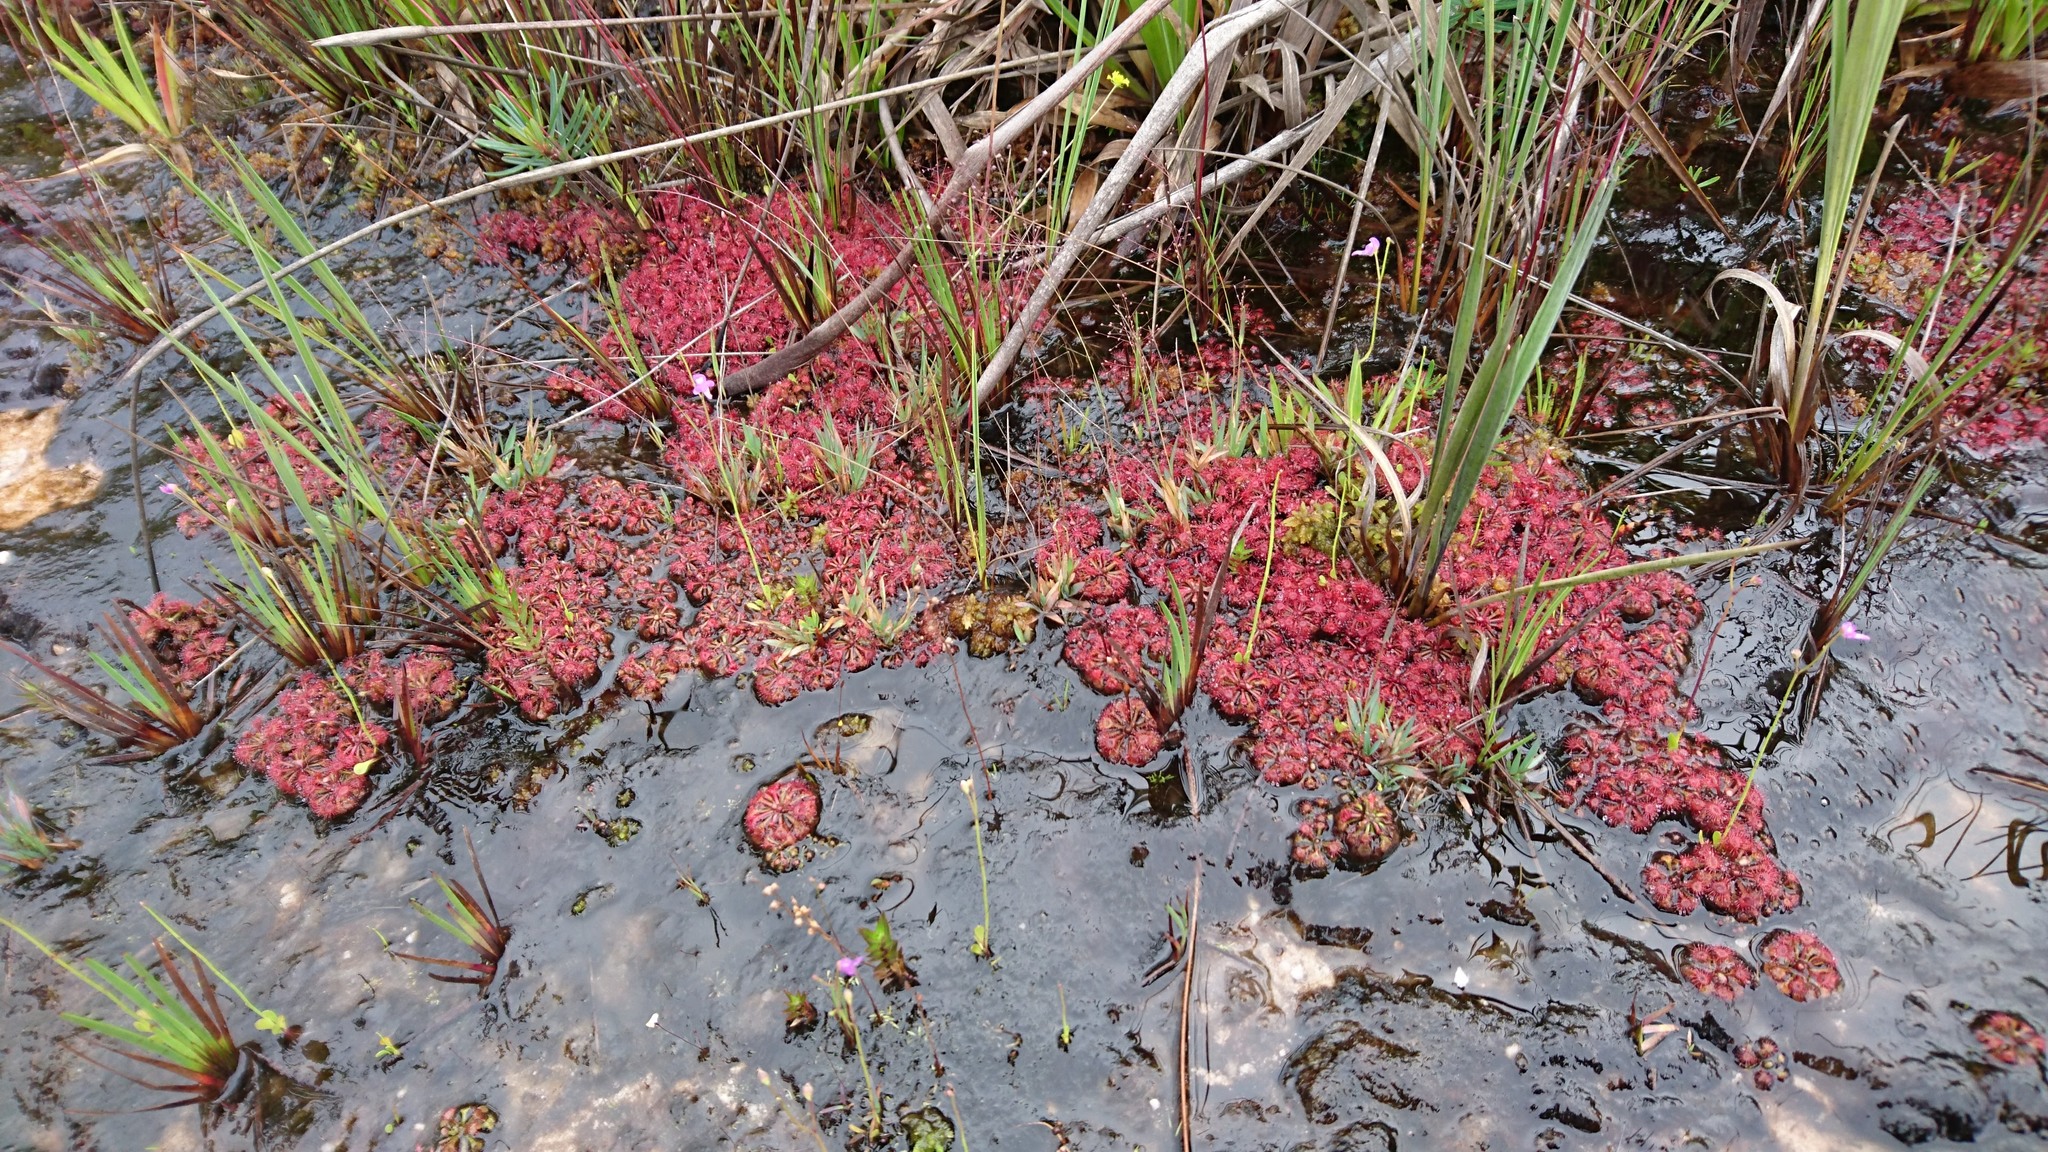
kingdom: Plantae
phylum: Tracheophyta
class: Magnoliopsida
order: Caryophyllales
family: Droseraceae
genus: Drosera
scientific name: Drosera kaieteurensis
